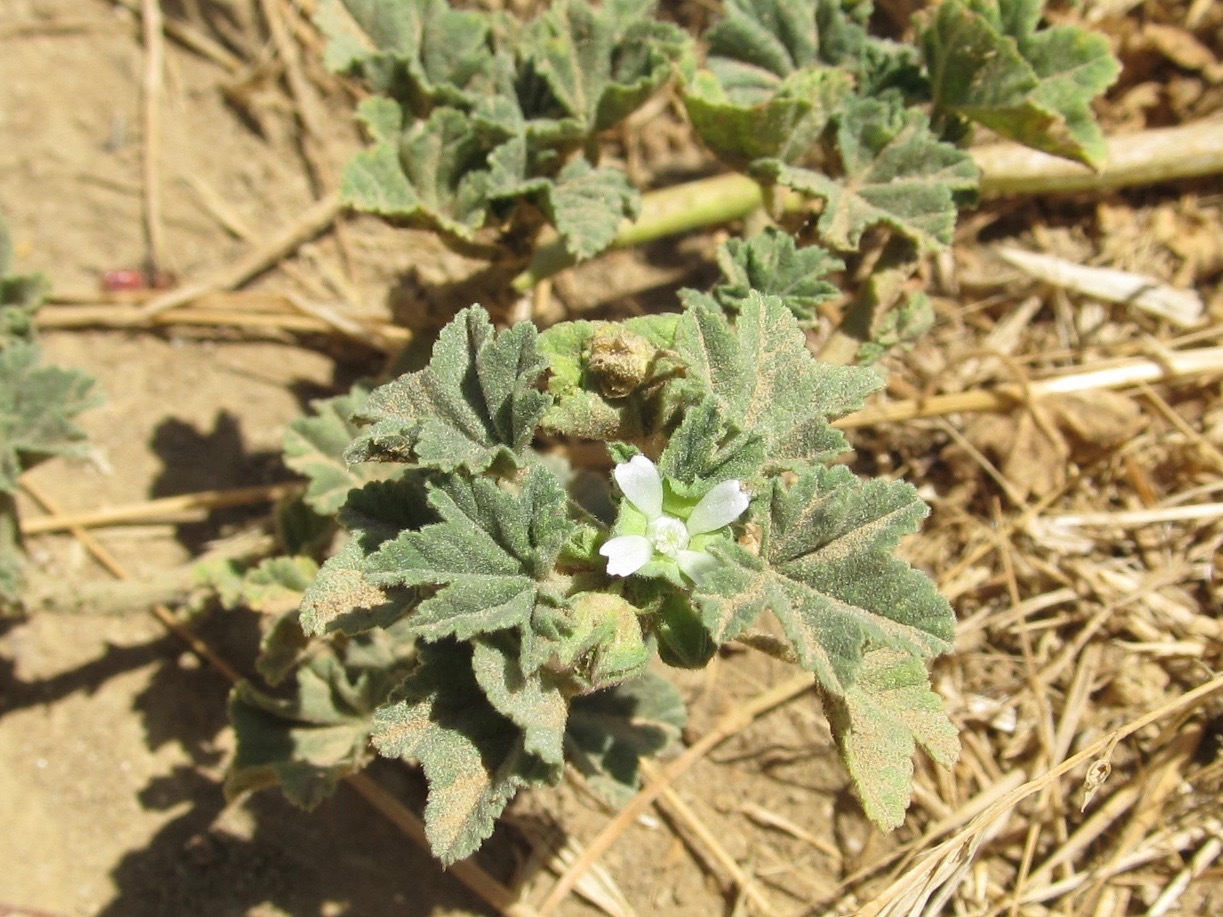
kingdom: Plantae
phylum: Tracheophyta
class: Magnoliopsida
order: Malvales
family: Malvaceae
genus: Malva
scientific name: Malva parviflora
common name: Least mallow
